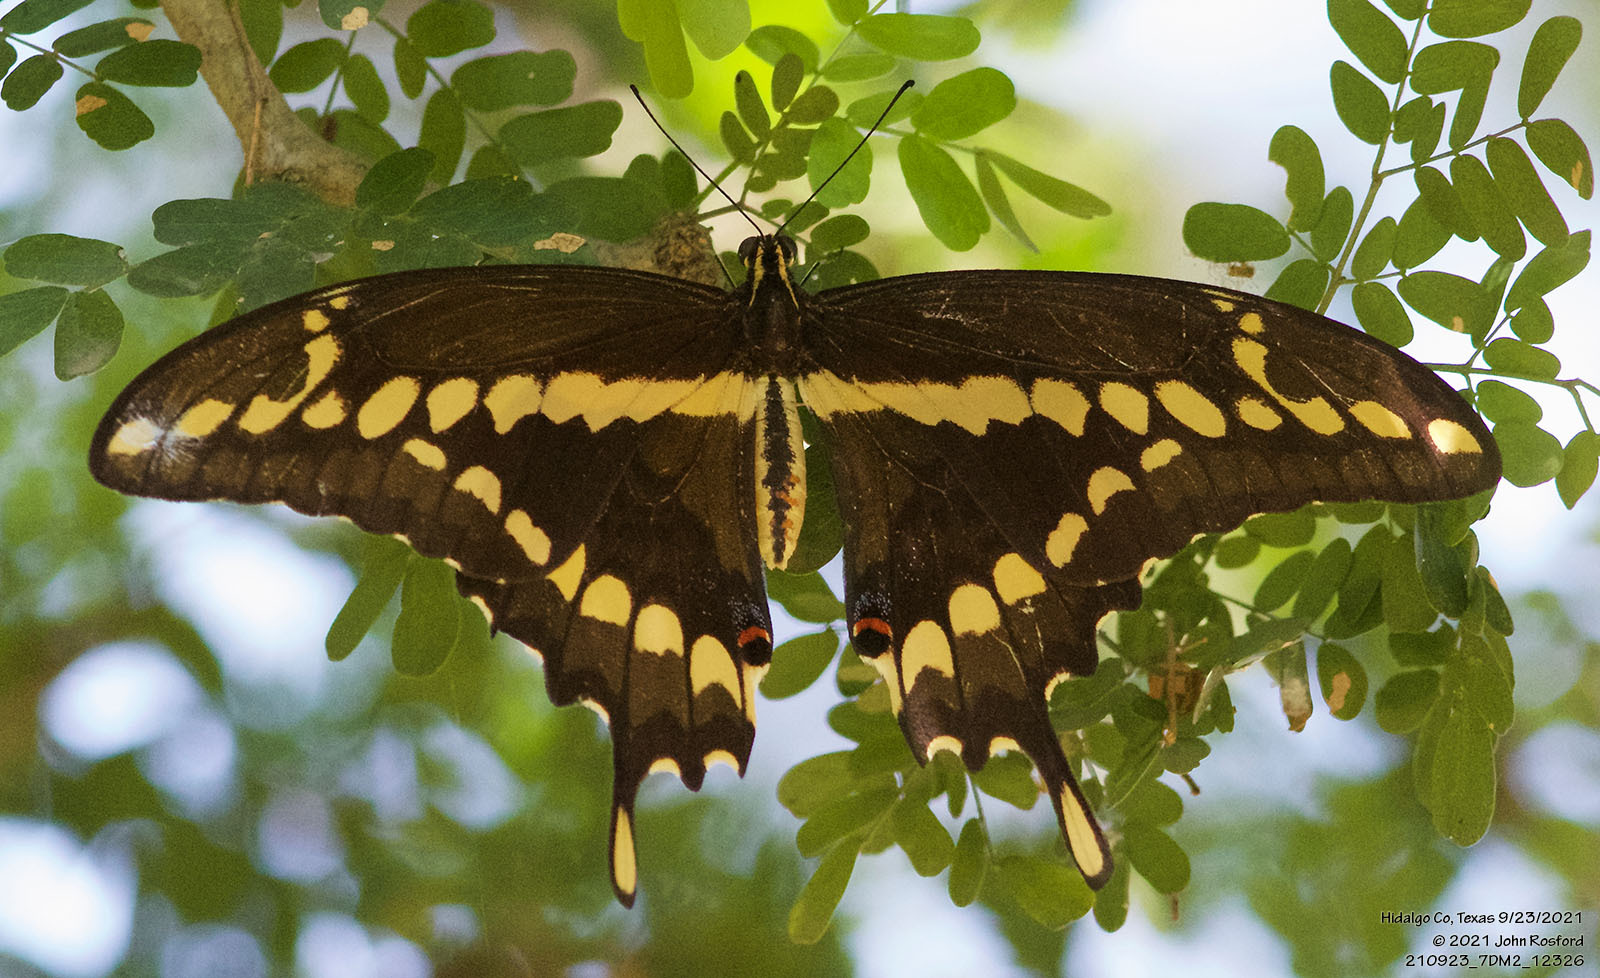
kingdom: Animalia
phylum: Arthropoda
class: Insecta
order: Lepidoptera
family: Papilionidae
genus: Papilio
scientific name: Papilio rumiko
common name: Western giant swallowtail
